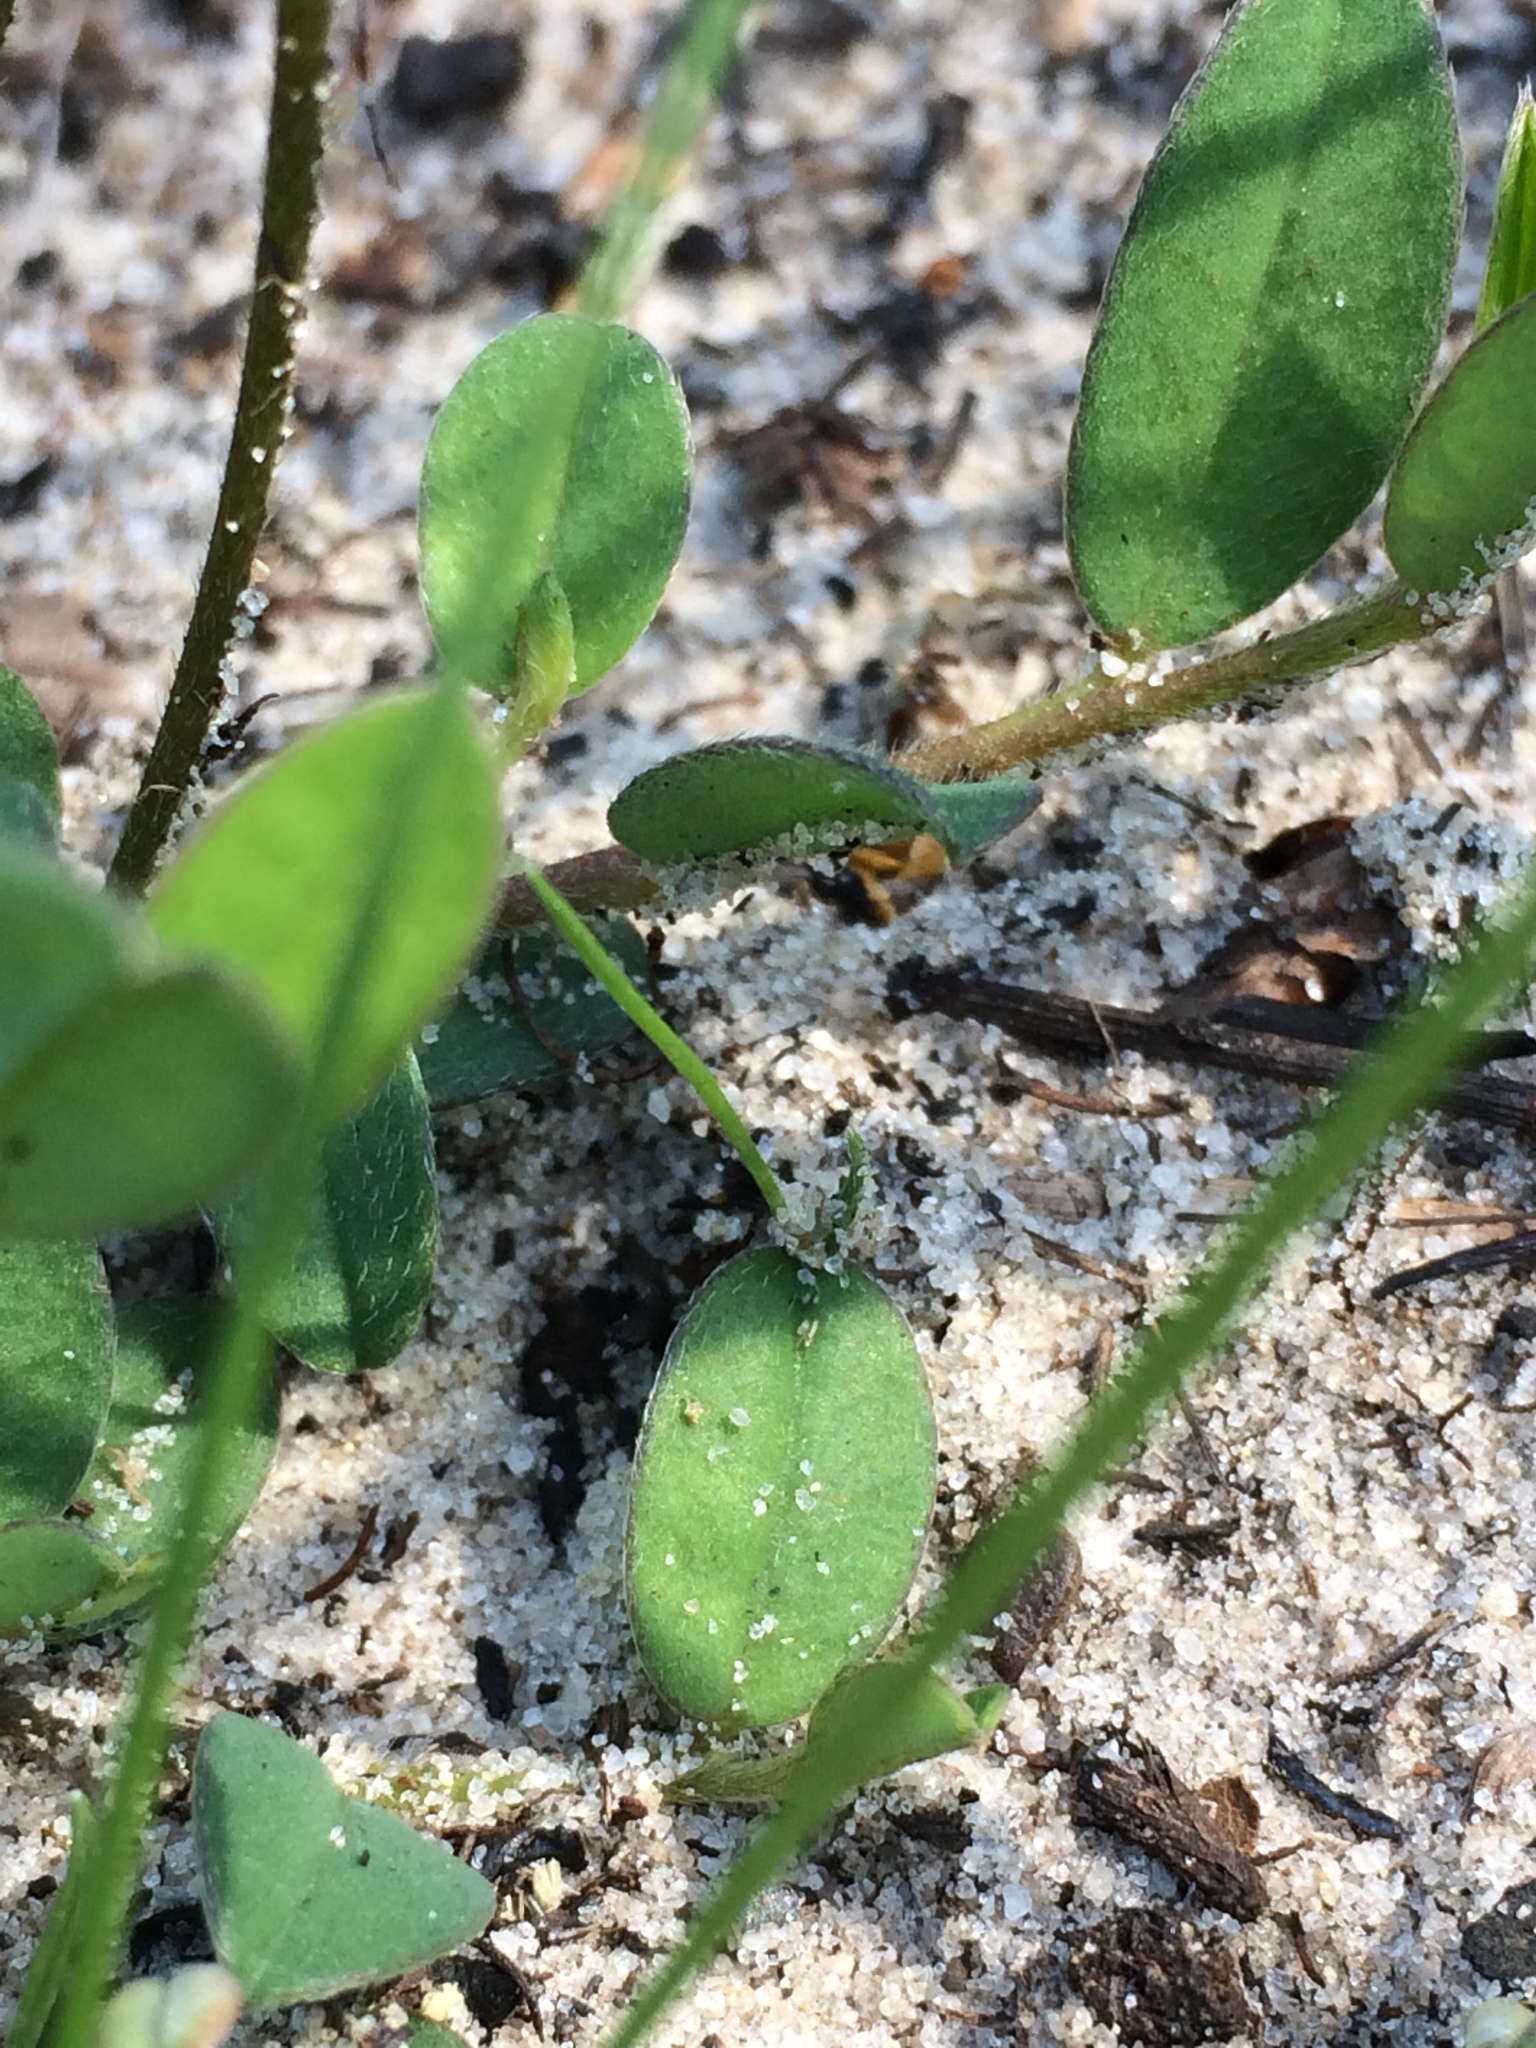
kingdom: Plantae
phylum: Tracheophyta
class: Magnoliopsida
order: Fabales
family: Fabaceae
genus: Crotalaria
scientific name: Crotalaria rotundifolia
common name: Prostrate rattlebox
